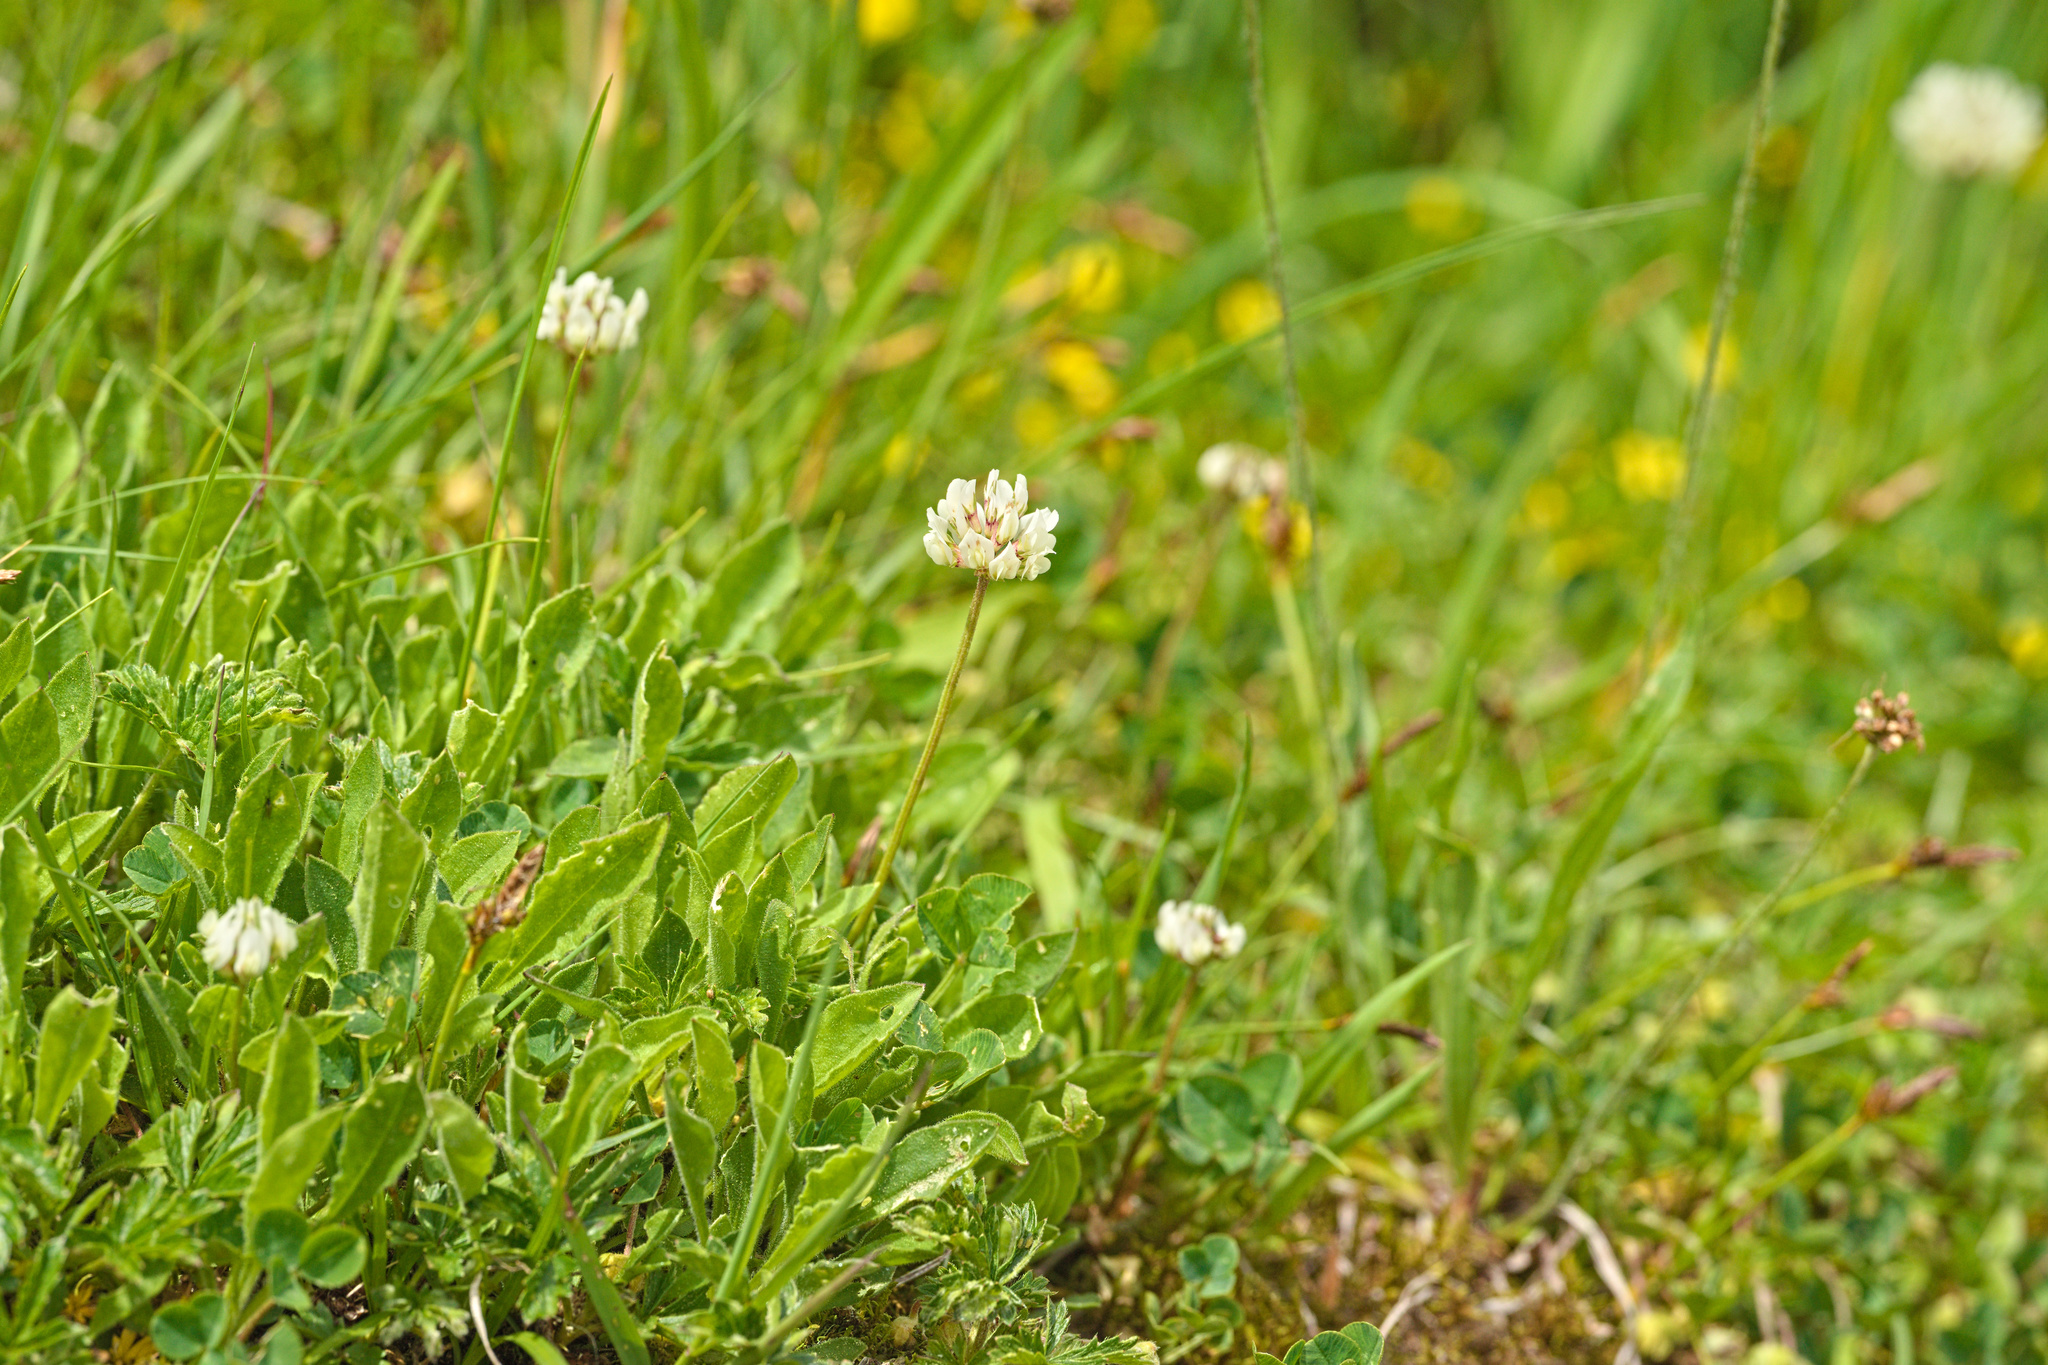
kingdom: Plantae
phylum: Tracheophyta
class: Magnoliopsida
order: Fabales
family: Fabaceae
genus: Trifolium
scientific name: Trifolium repens
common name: White clover
